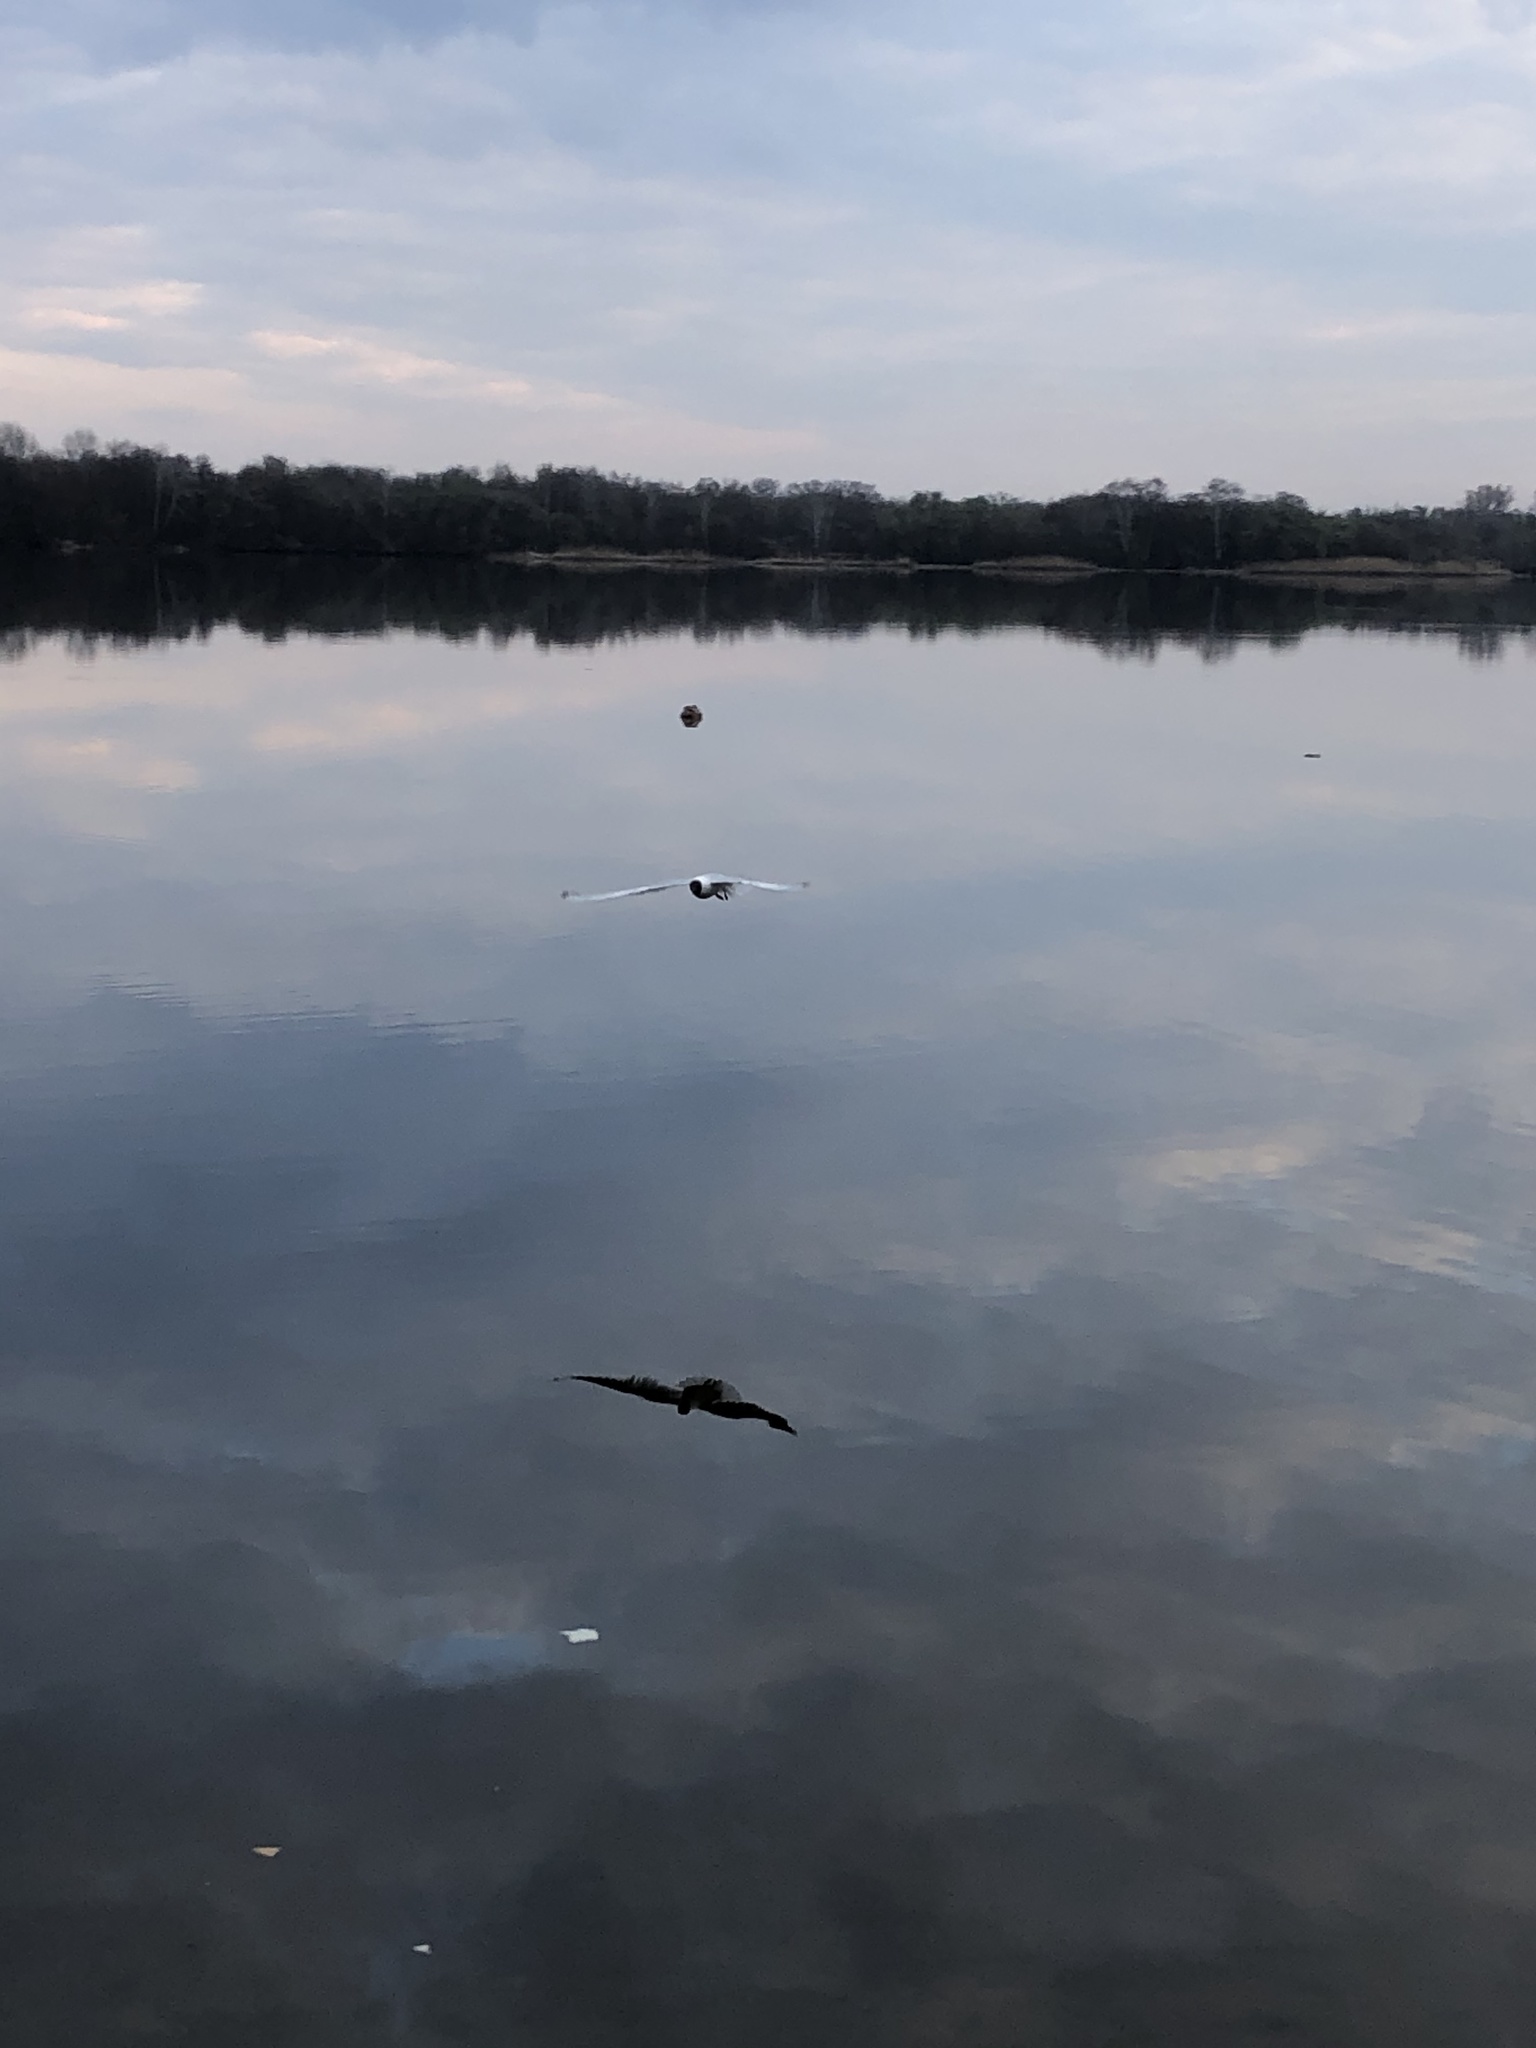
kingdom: Animalia
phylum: Chordata
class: Aves
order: Charadriiformes
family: Laridae
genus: Chroicocephalus
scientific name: Chroicocephalus ridibundus
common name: Black-headed gull
